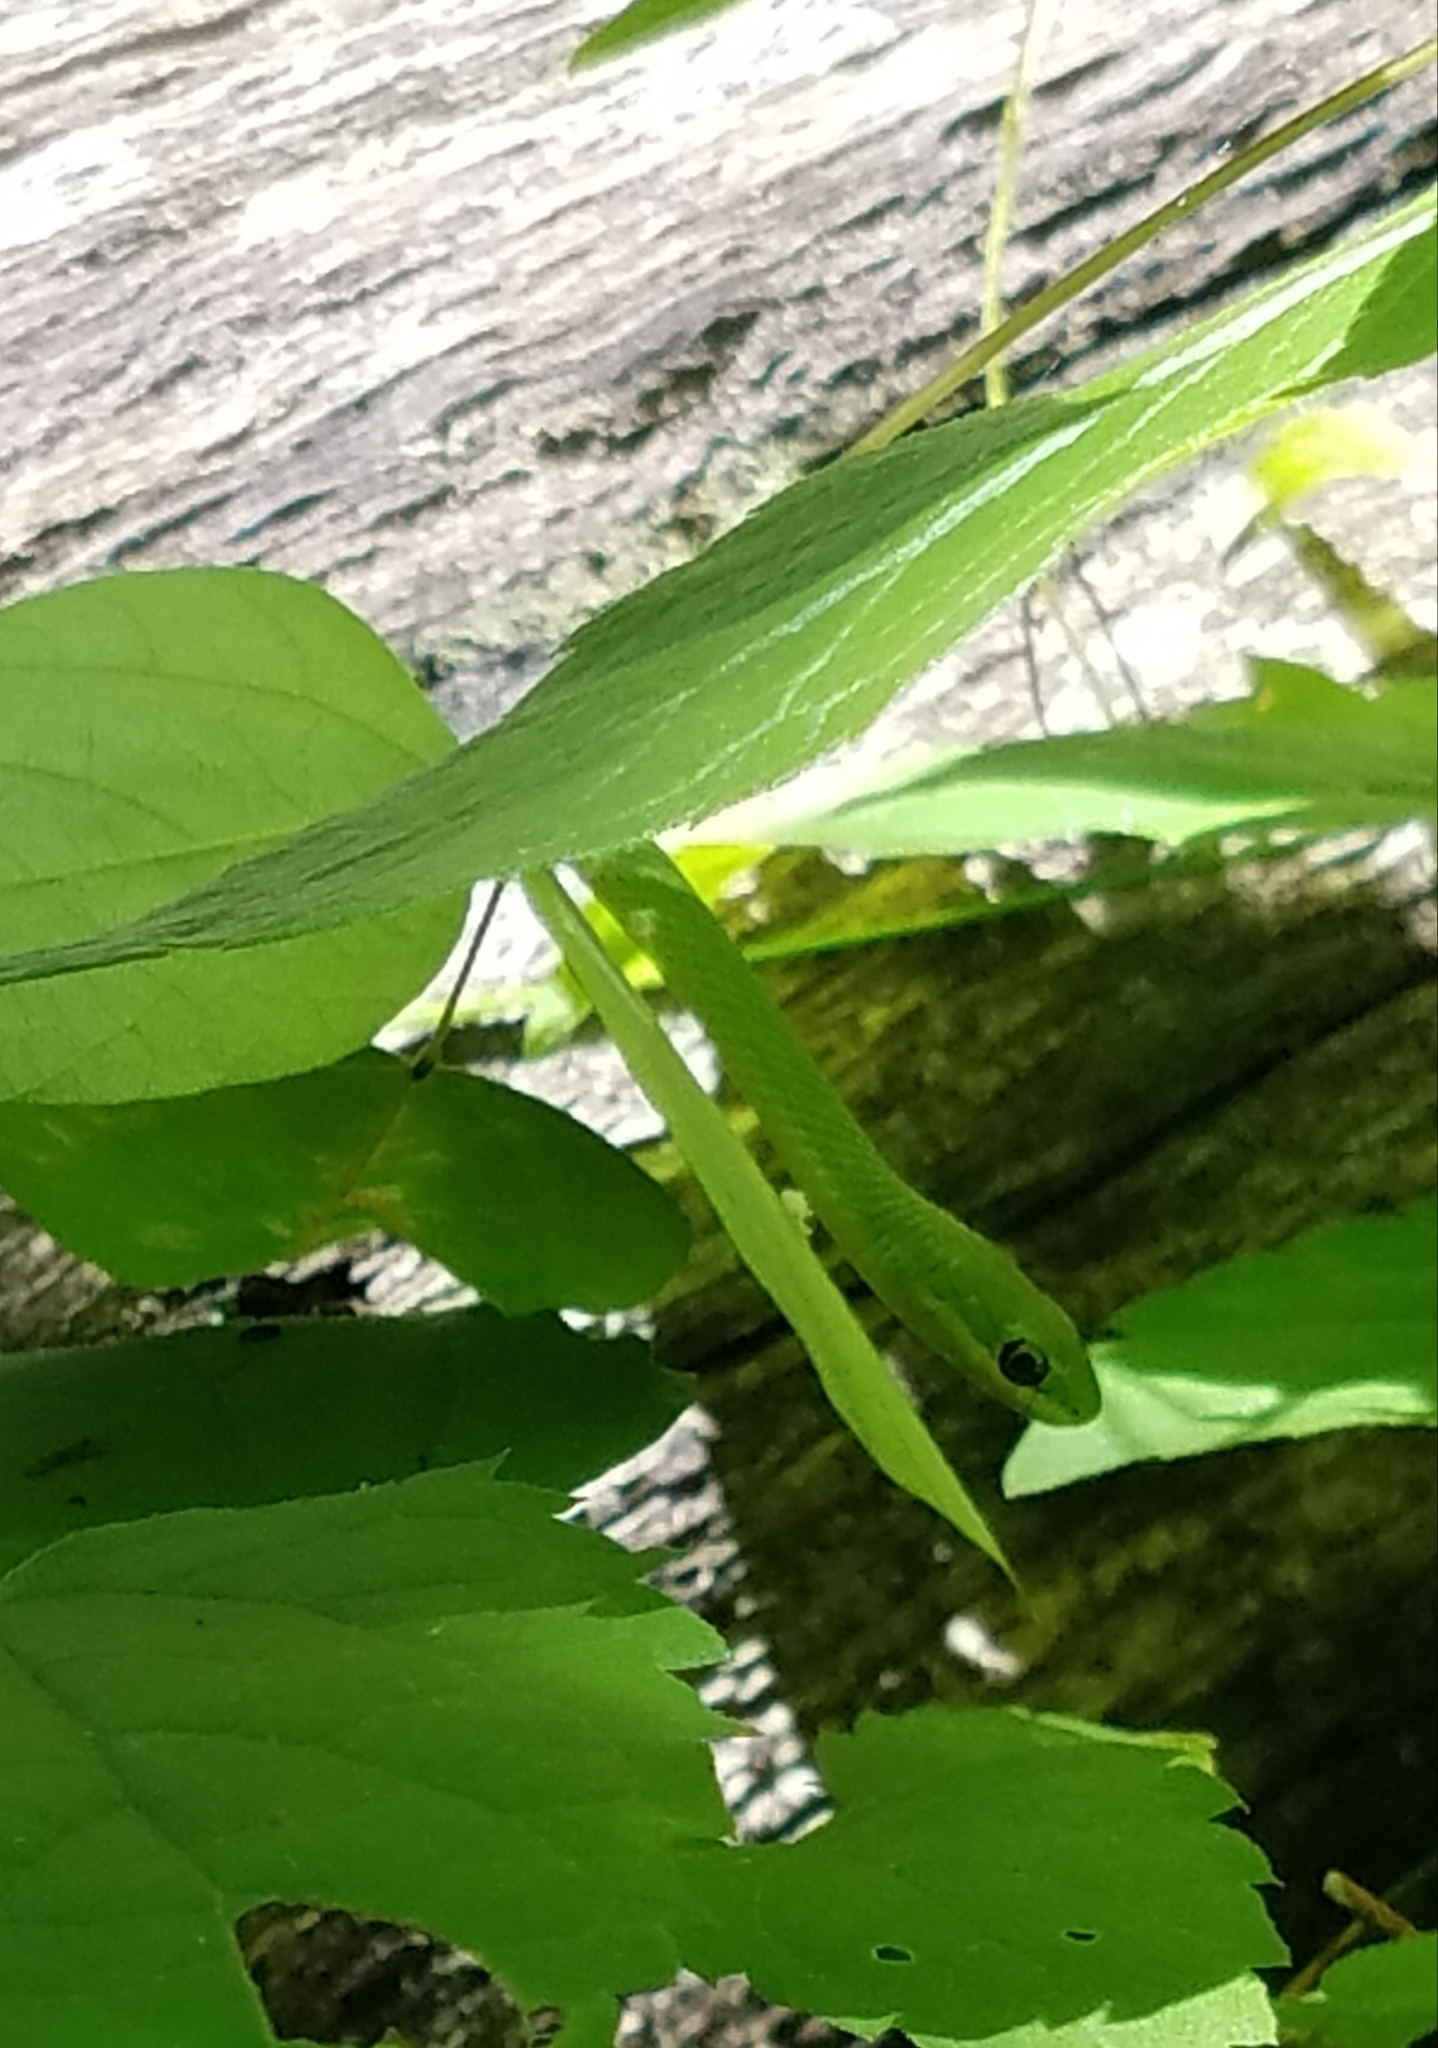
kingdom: Animalia
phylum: Chordata
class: Squamata
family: Colubridae
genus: Opheodrys
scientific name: Opheodrys aestivus
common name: Rough greensnake
